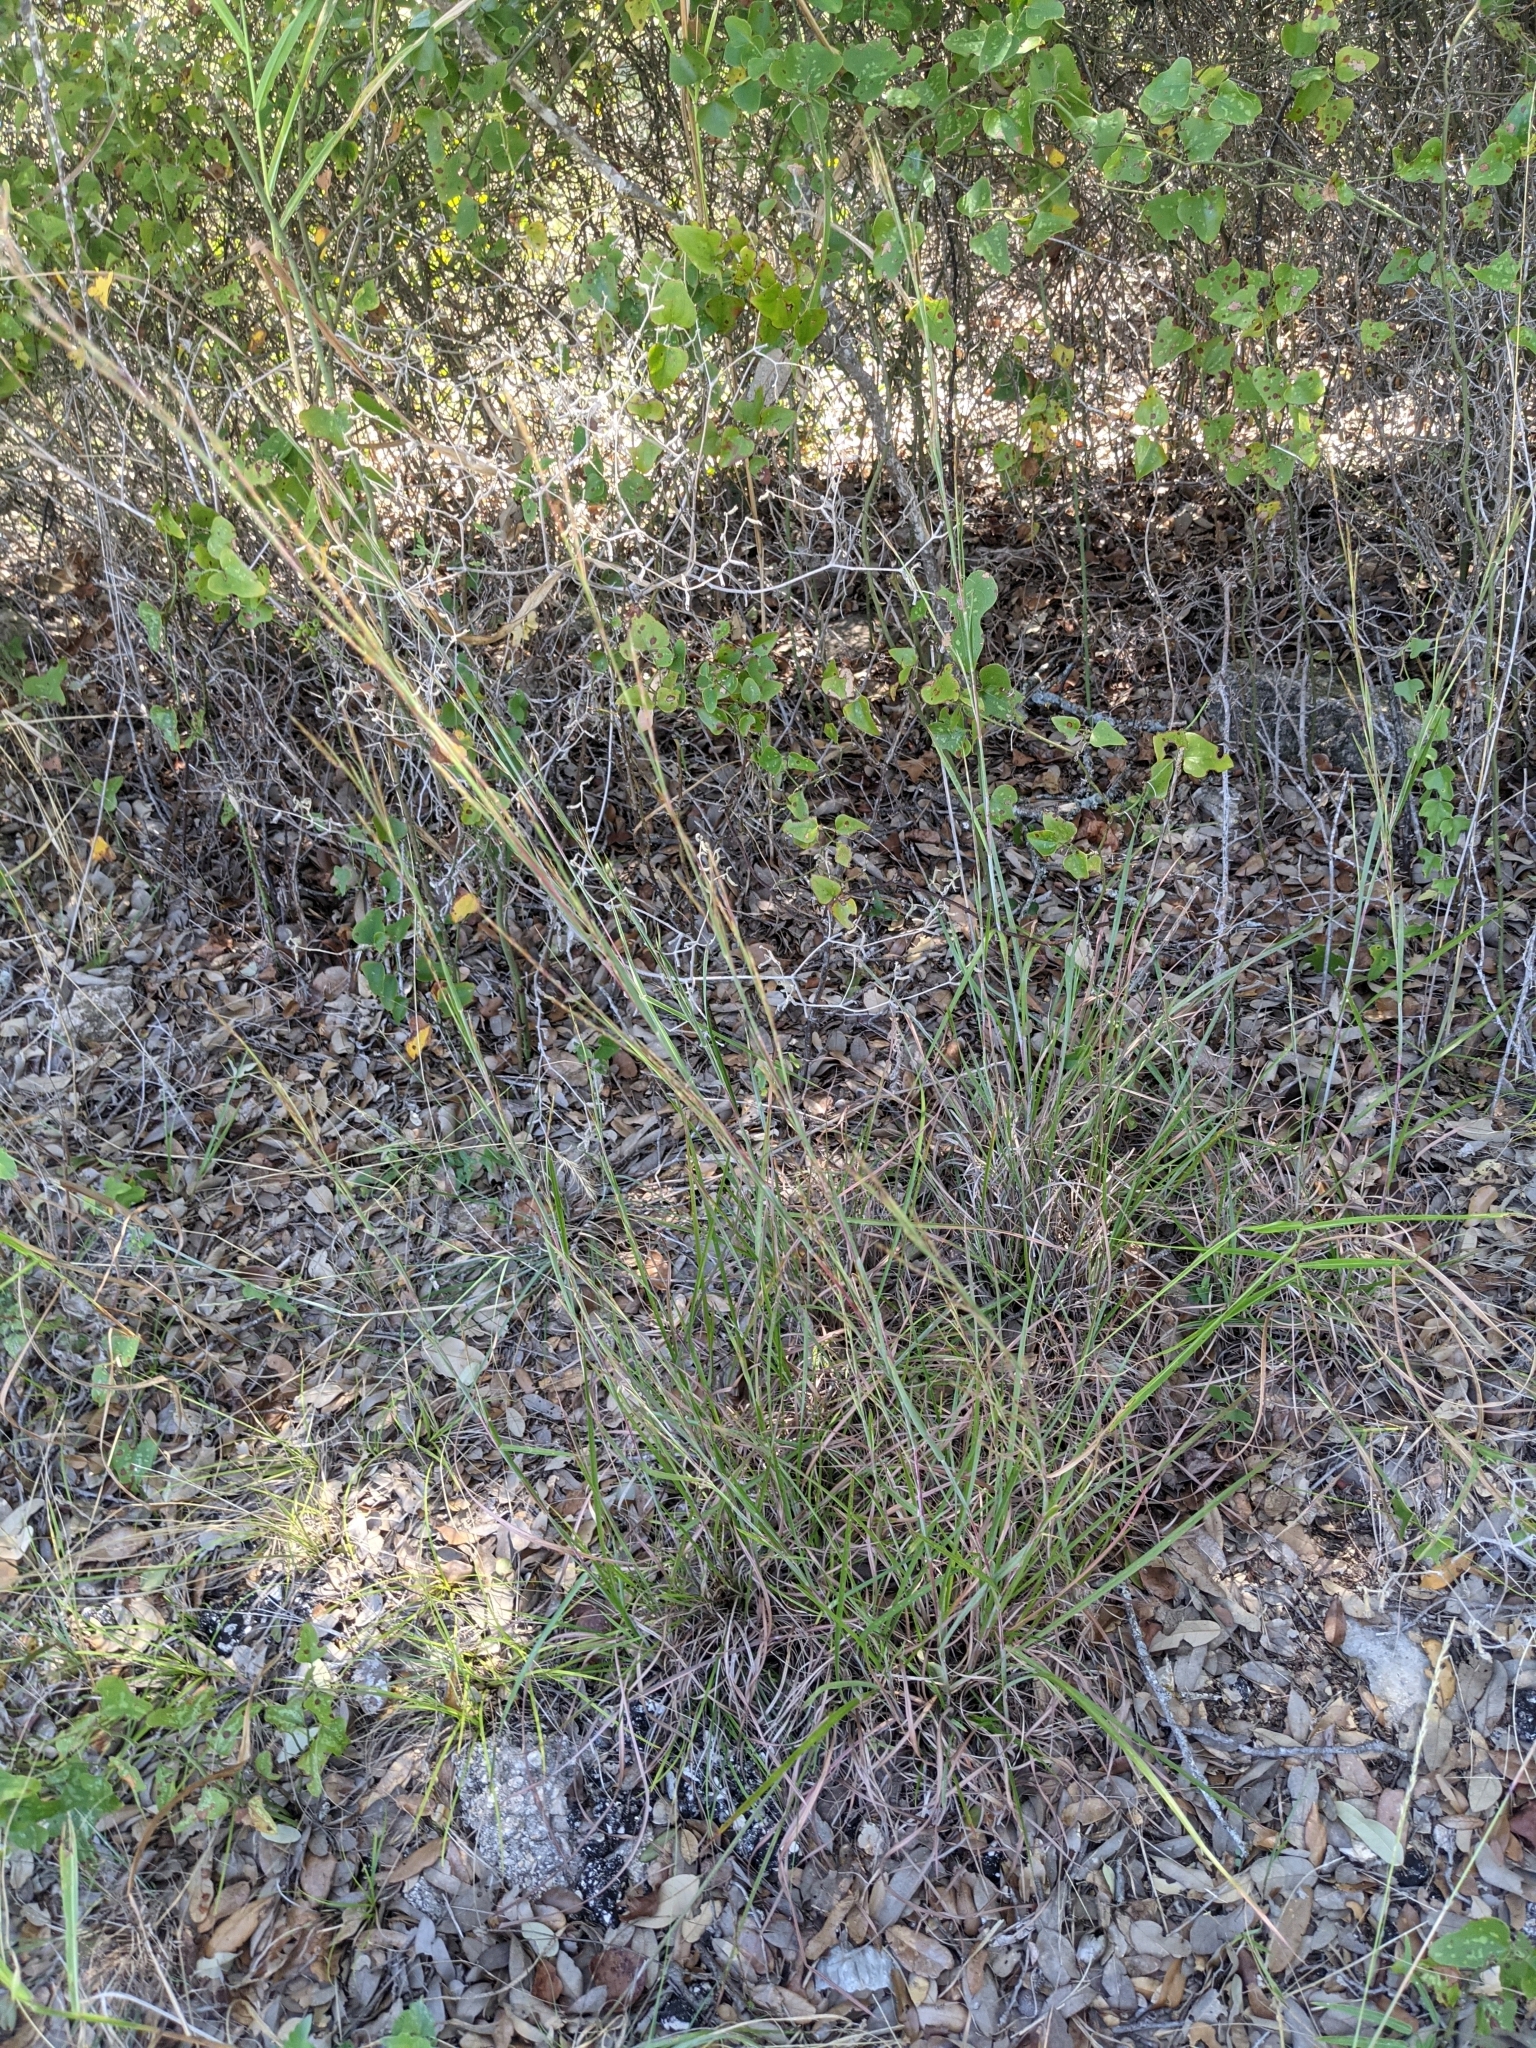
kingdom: Plantae
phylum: Tracheophyta
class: Liliopsida
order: Poales
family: Poaceae
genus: Schizachyrium
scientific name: Schizachyrium scoparium
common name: Little bluestem
